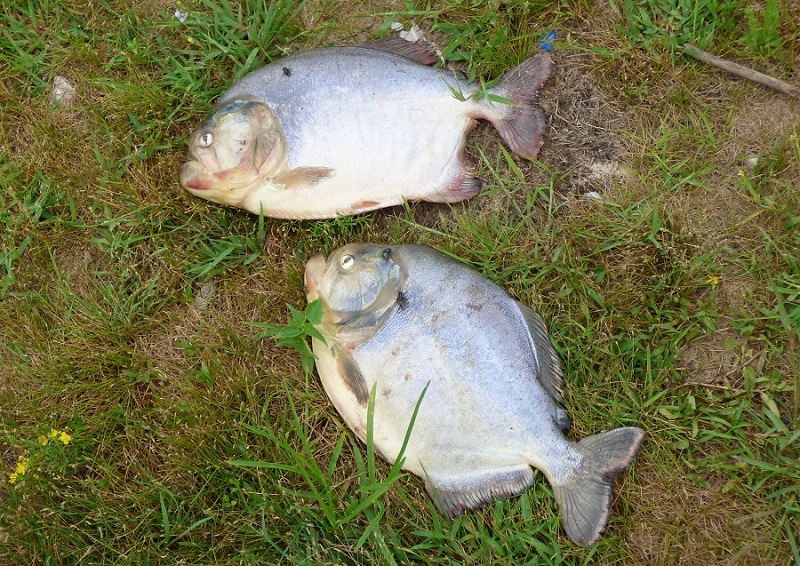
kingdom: Animalia
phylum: Chordata
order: Characiformes
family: Serrasalmidae
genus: Pygocentrus
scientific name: Pygocentrus nattereri
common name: Piranha
